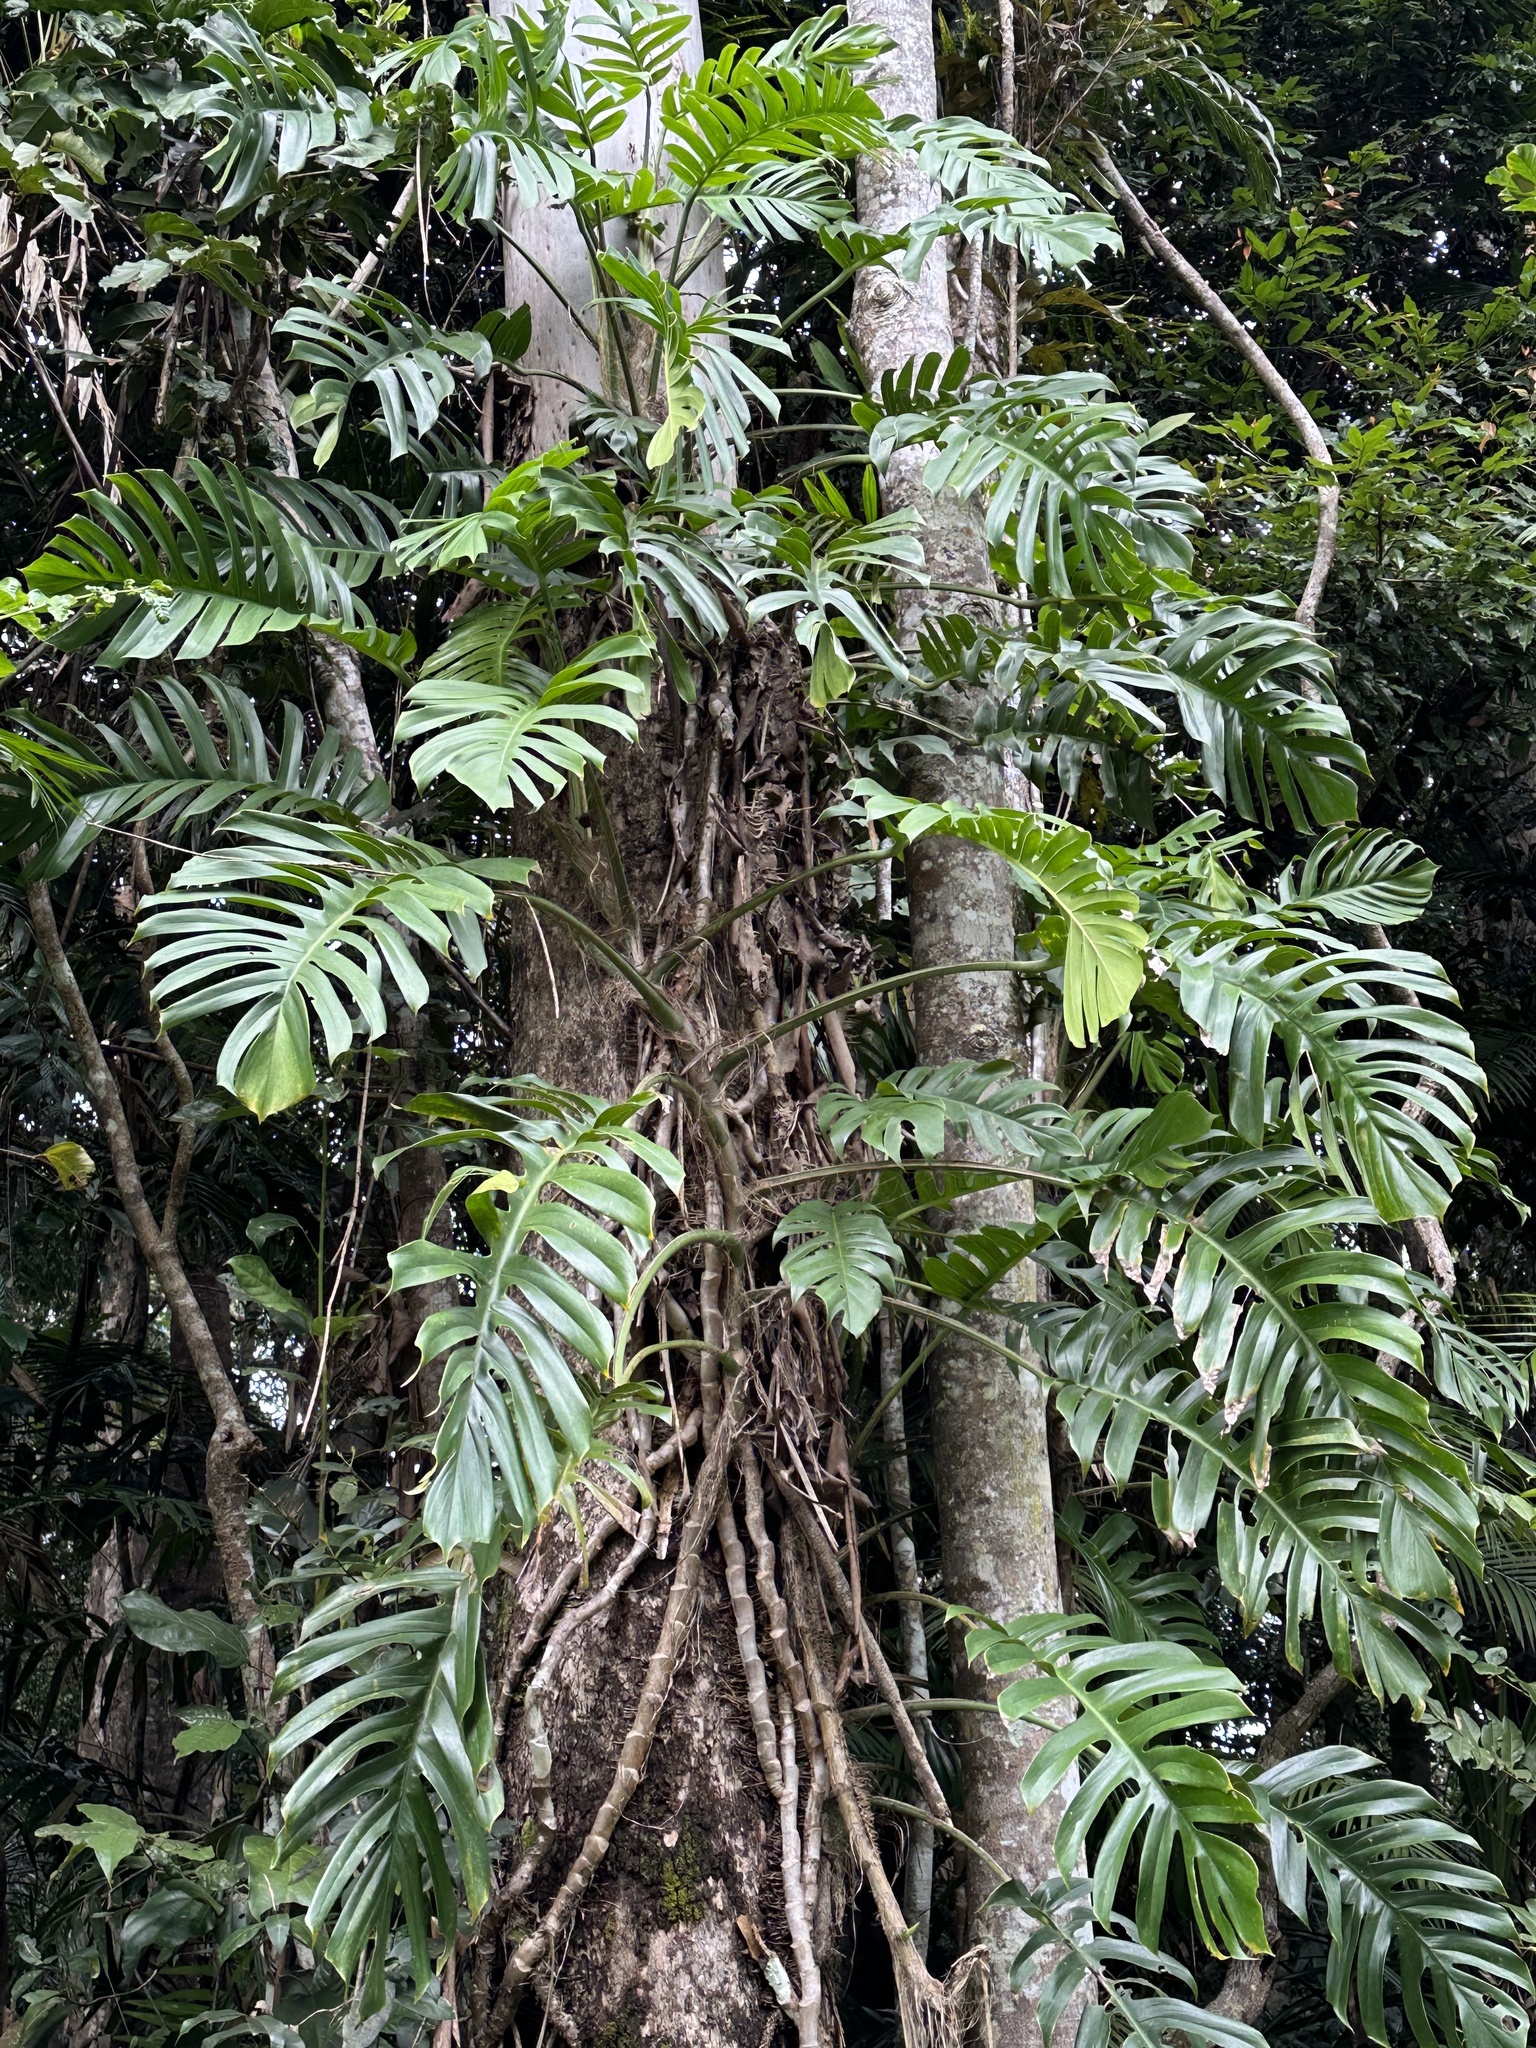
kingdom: Plantae
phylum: Tracheophyta
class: Liliopsida
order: Alismatales
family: Araceae
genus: Epipremnum
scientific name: Epipremnum pinnatum
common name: Centipede tongavine
